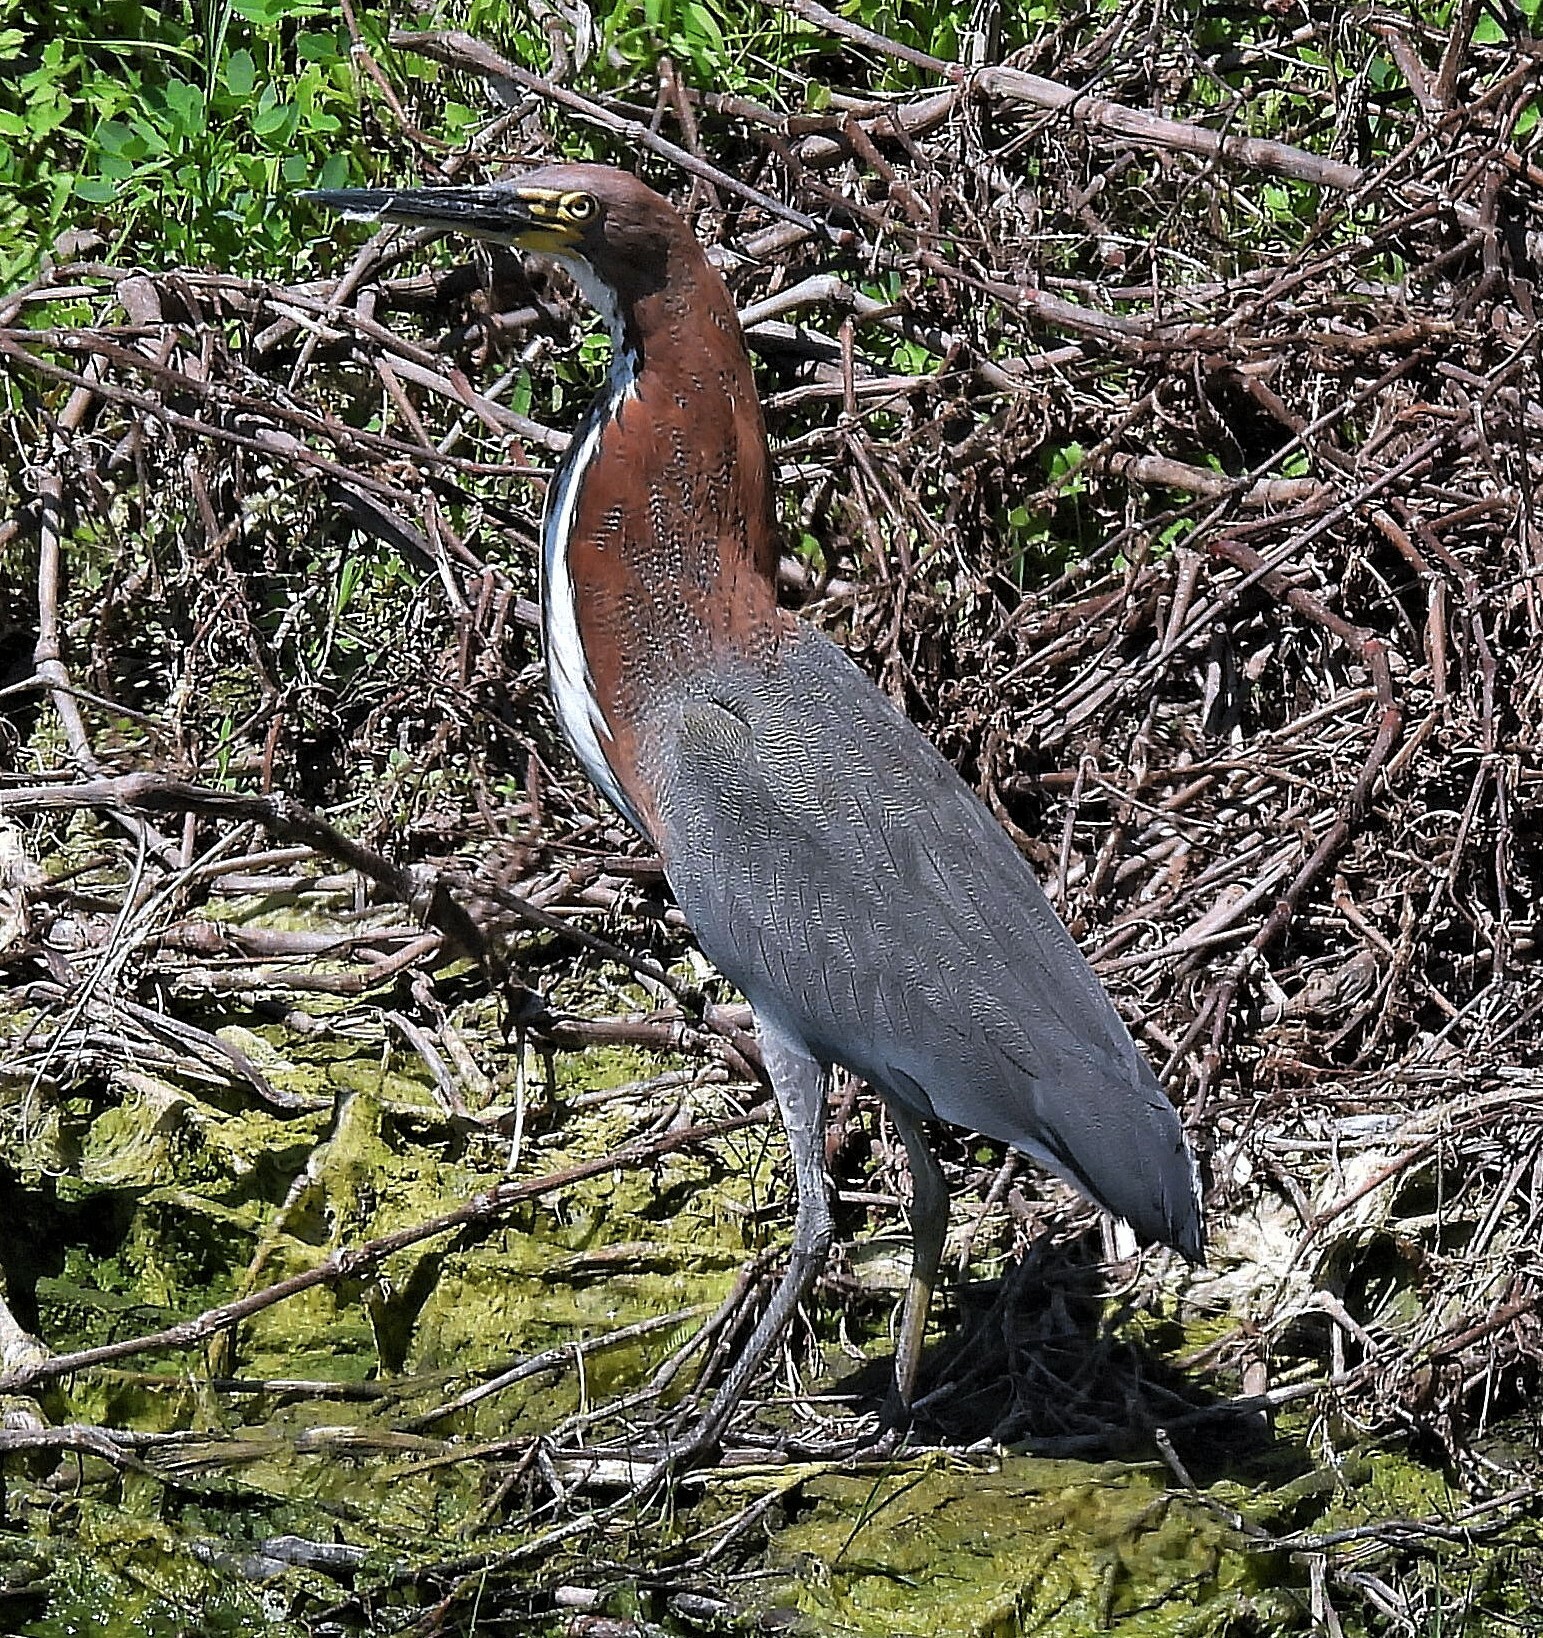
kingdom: Animalia
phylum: Chordata
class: Aves
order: Pelecaniformes
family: Ardeidae
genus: Tigrisoma
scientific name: Tigrisoma lineatum
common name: Rufescent tiger-heron
